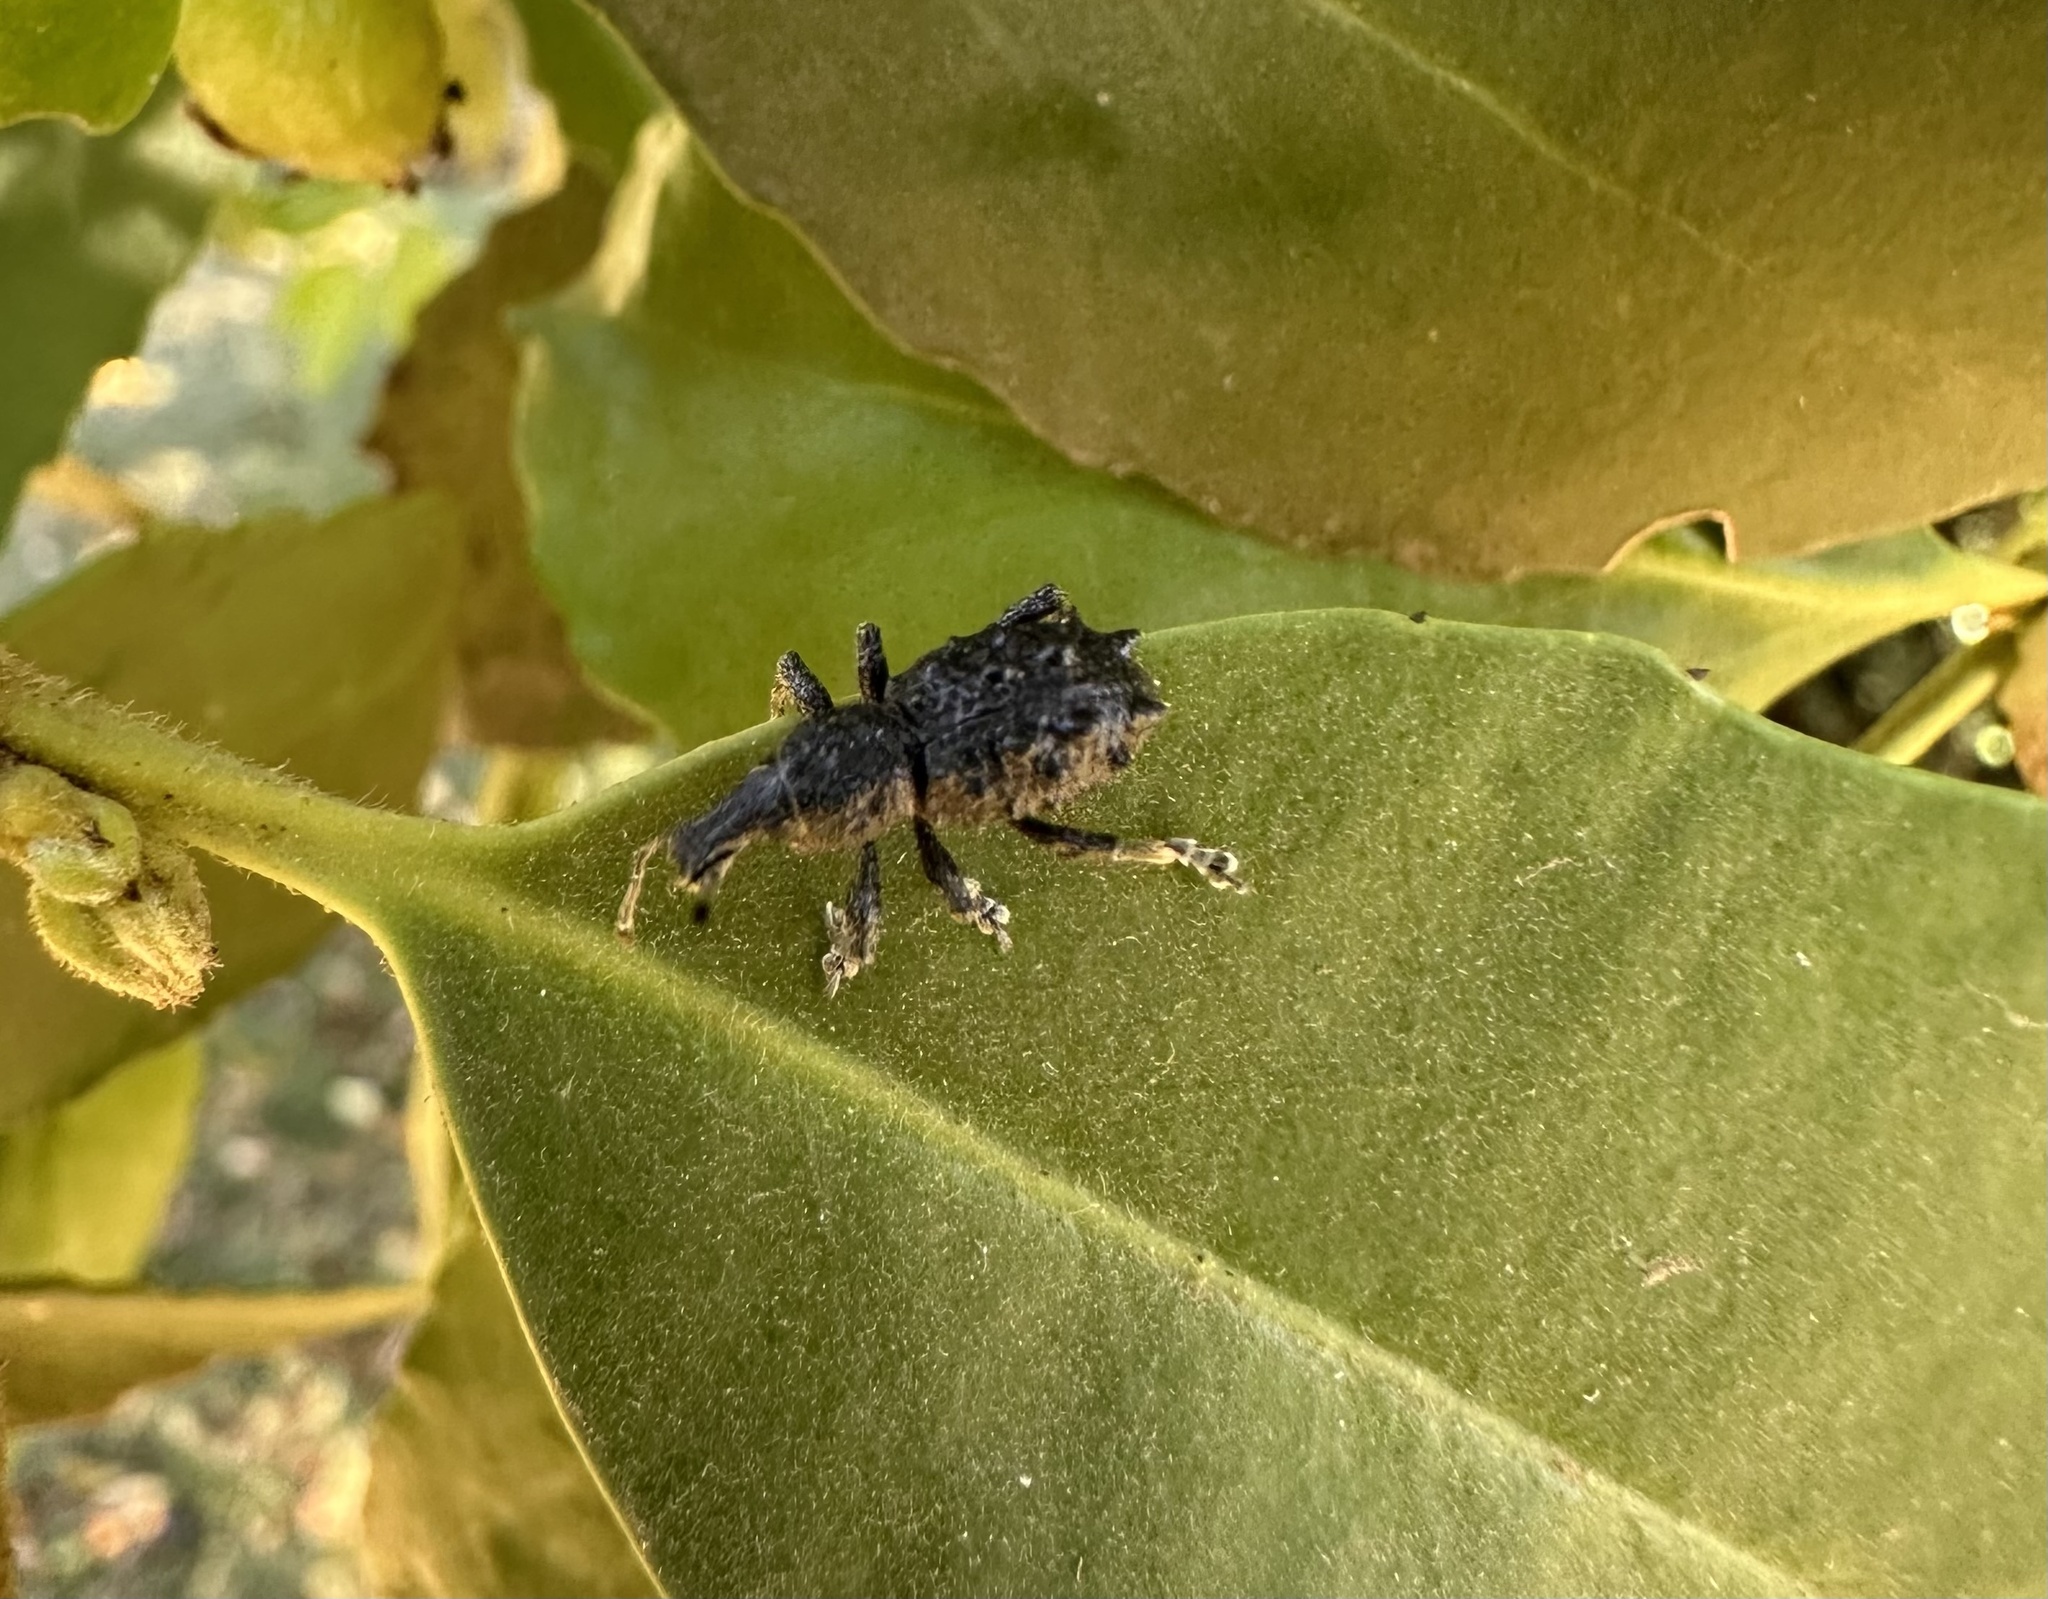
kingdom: Animalia
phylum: Arthropoda
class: Insecta
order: Coleoptera
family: Curculionidae
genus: Megalometis
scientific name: Megalometis spiniferus
